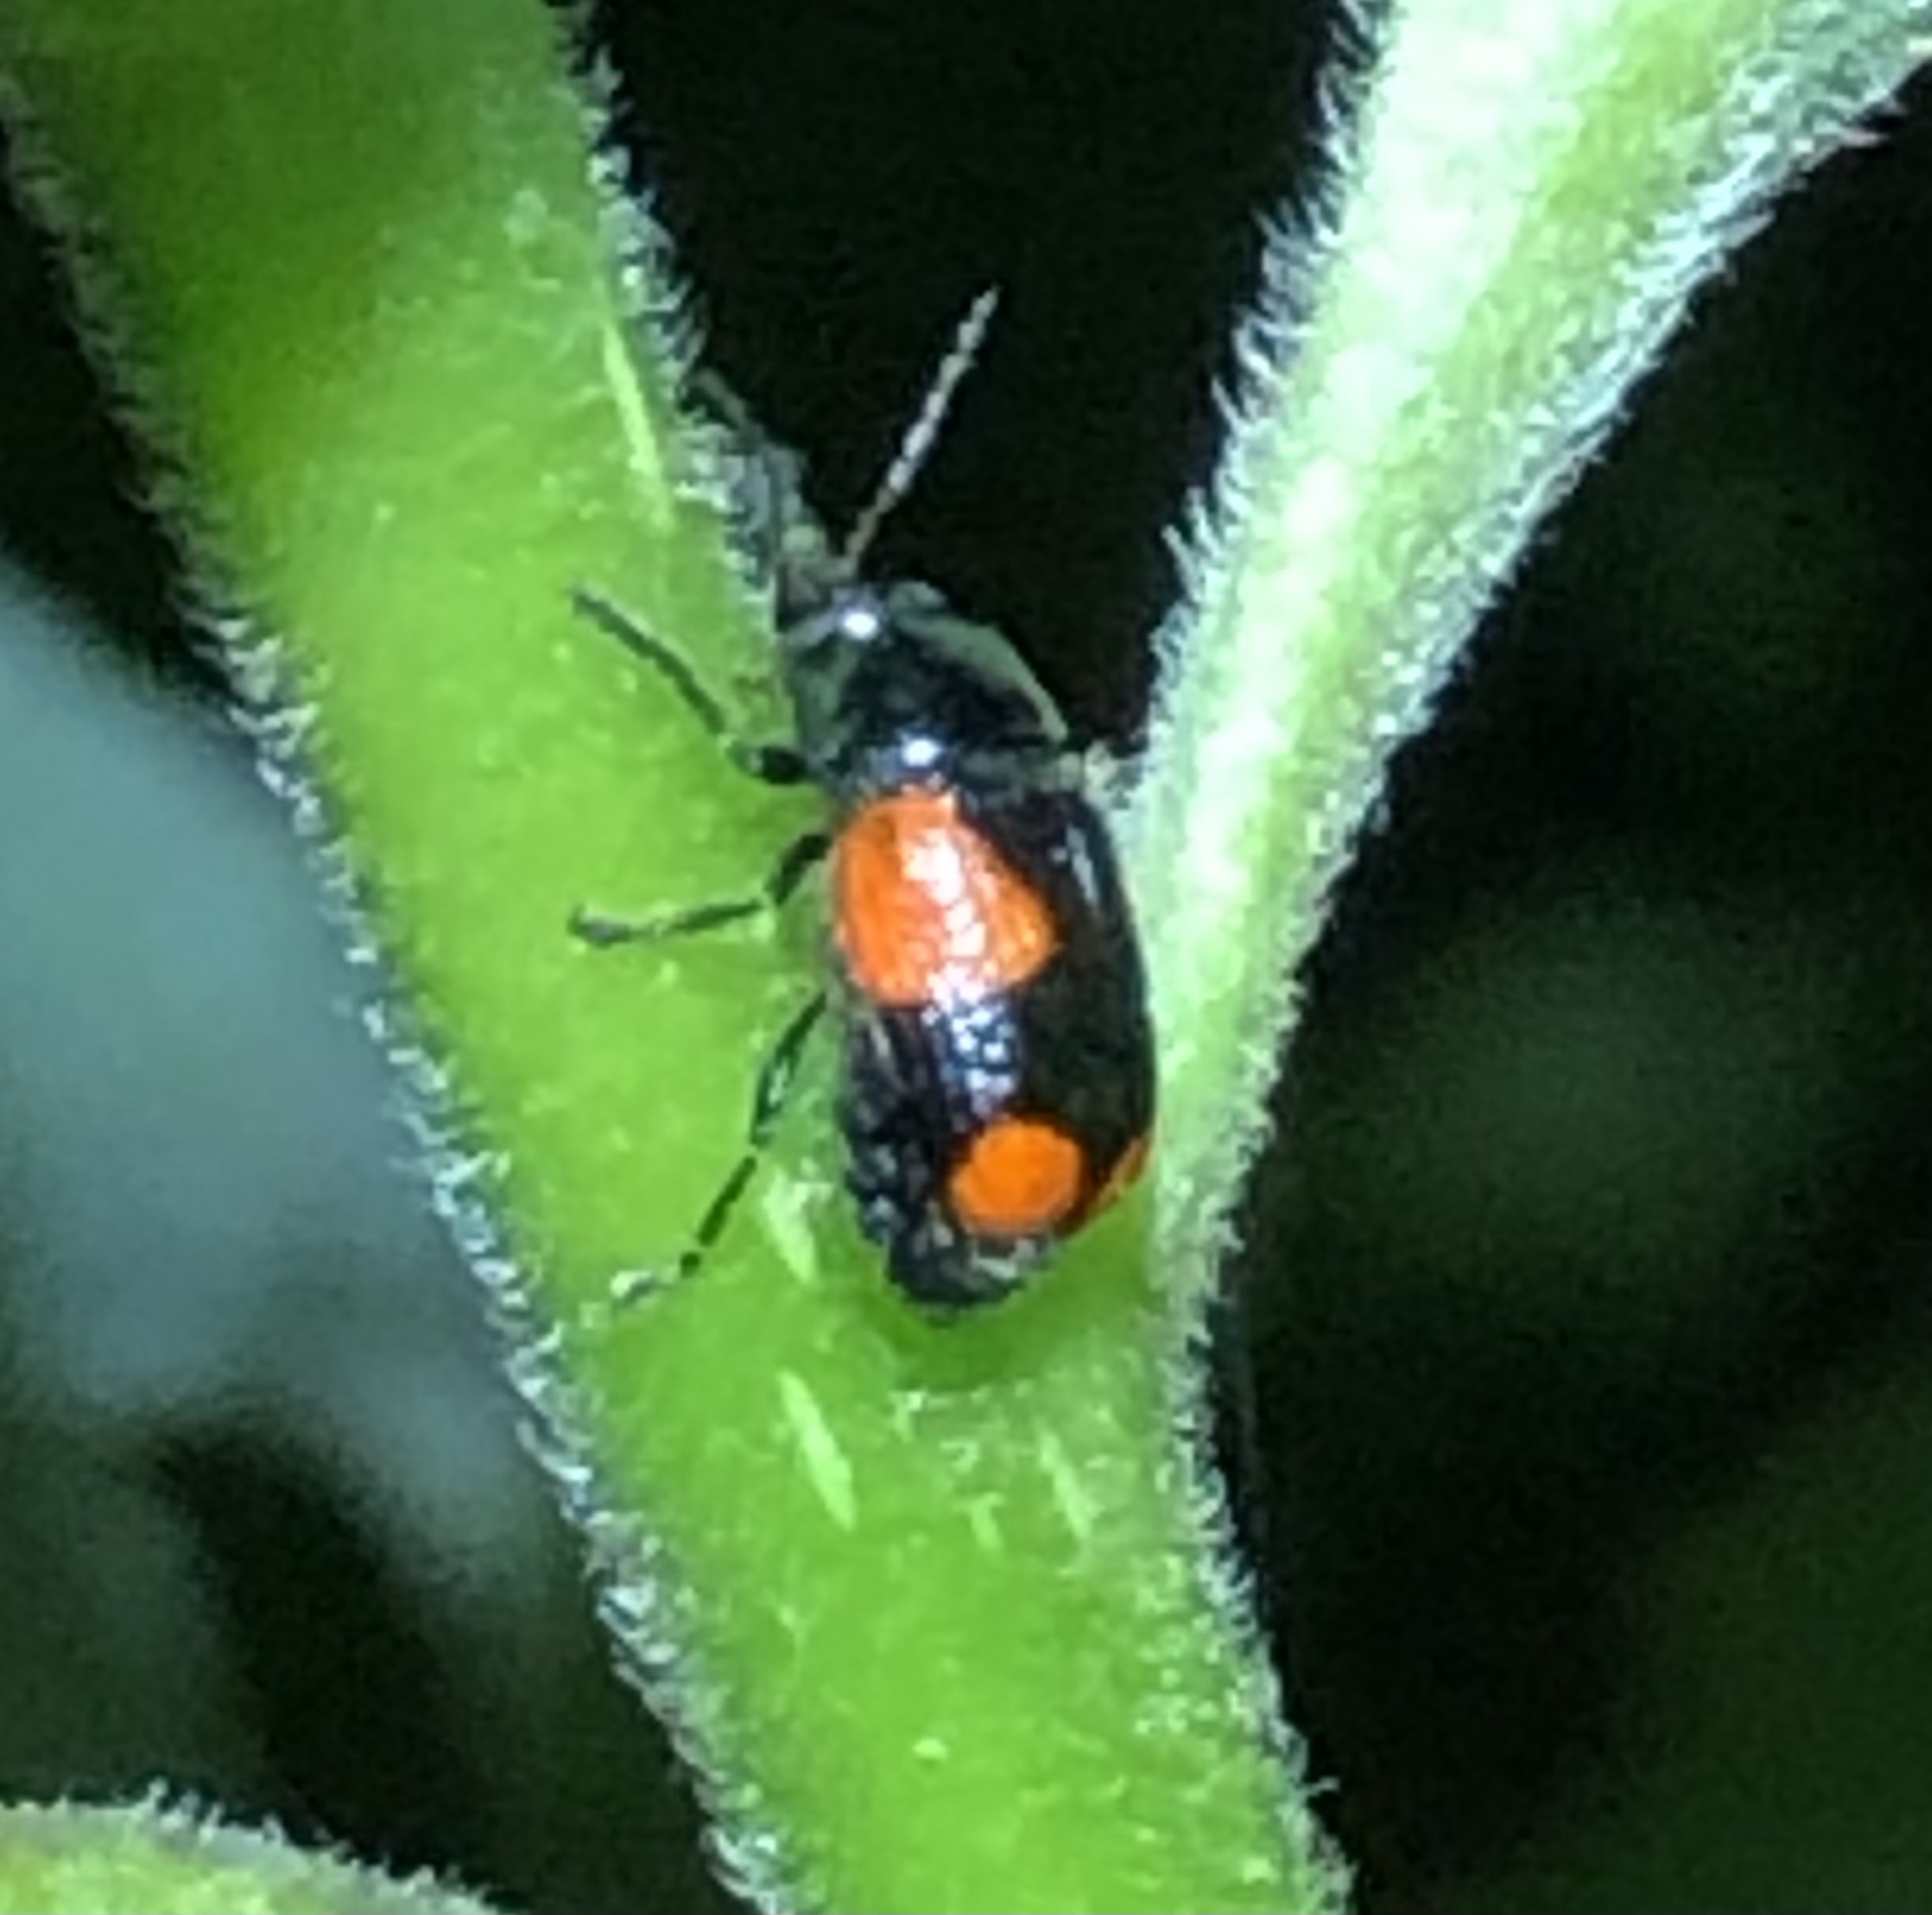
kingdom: Animalia
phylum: Arthropoda
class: Insecta
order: Coleoptera
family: Chrysomelidae
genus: Cryptocephalus
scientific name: Cryptocephalus quadruplex
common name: Black and red sumac leaf beetle
